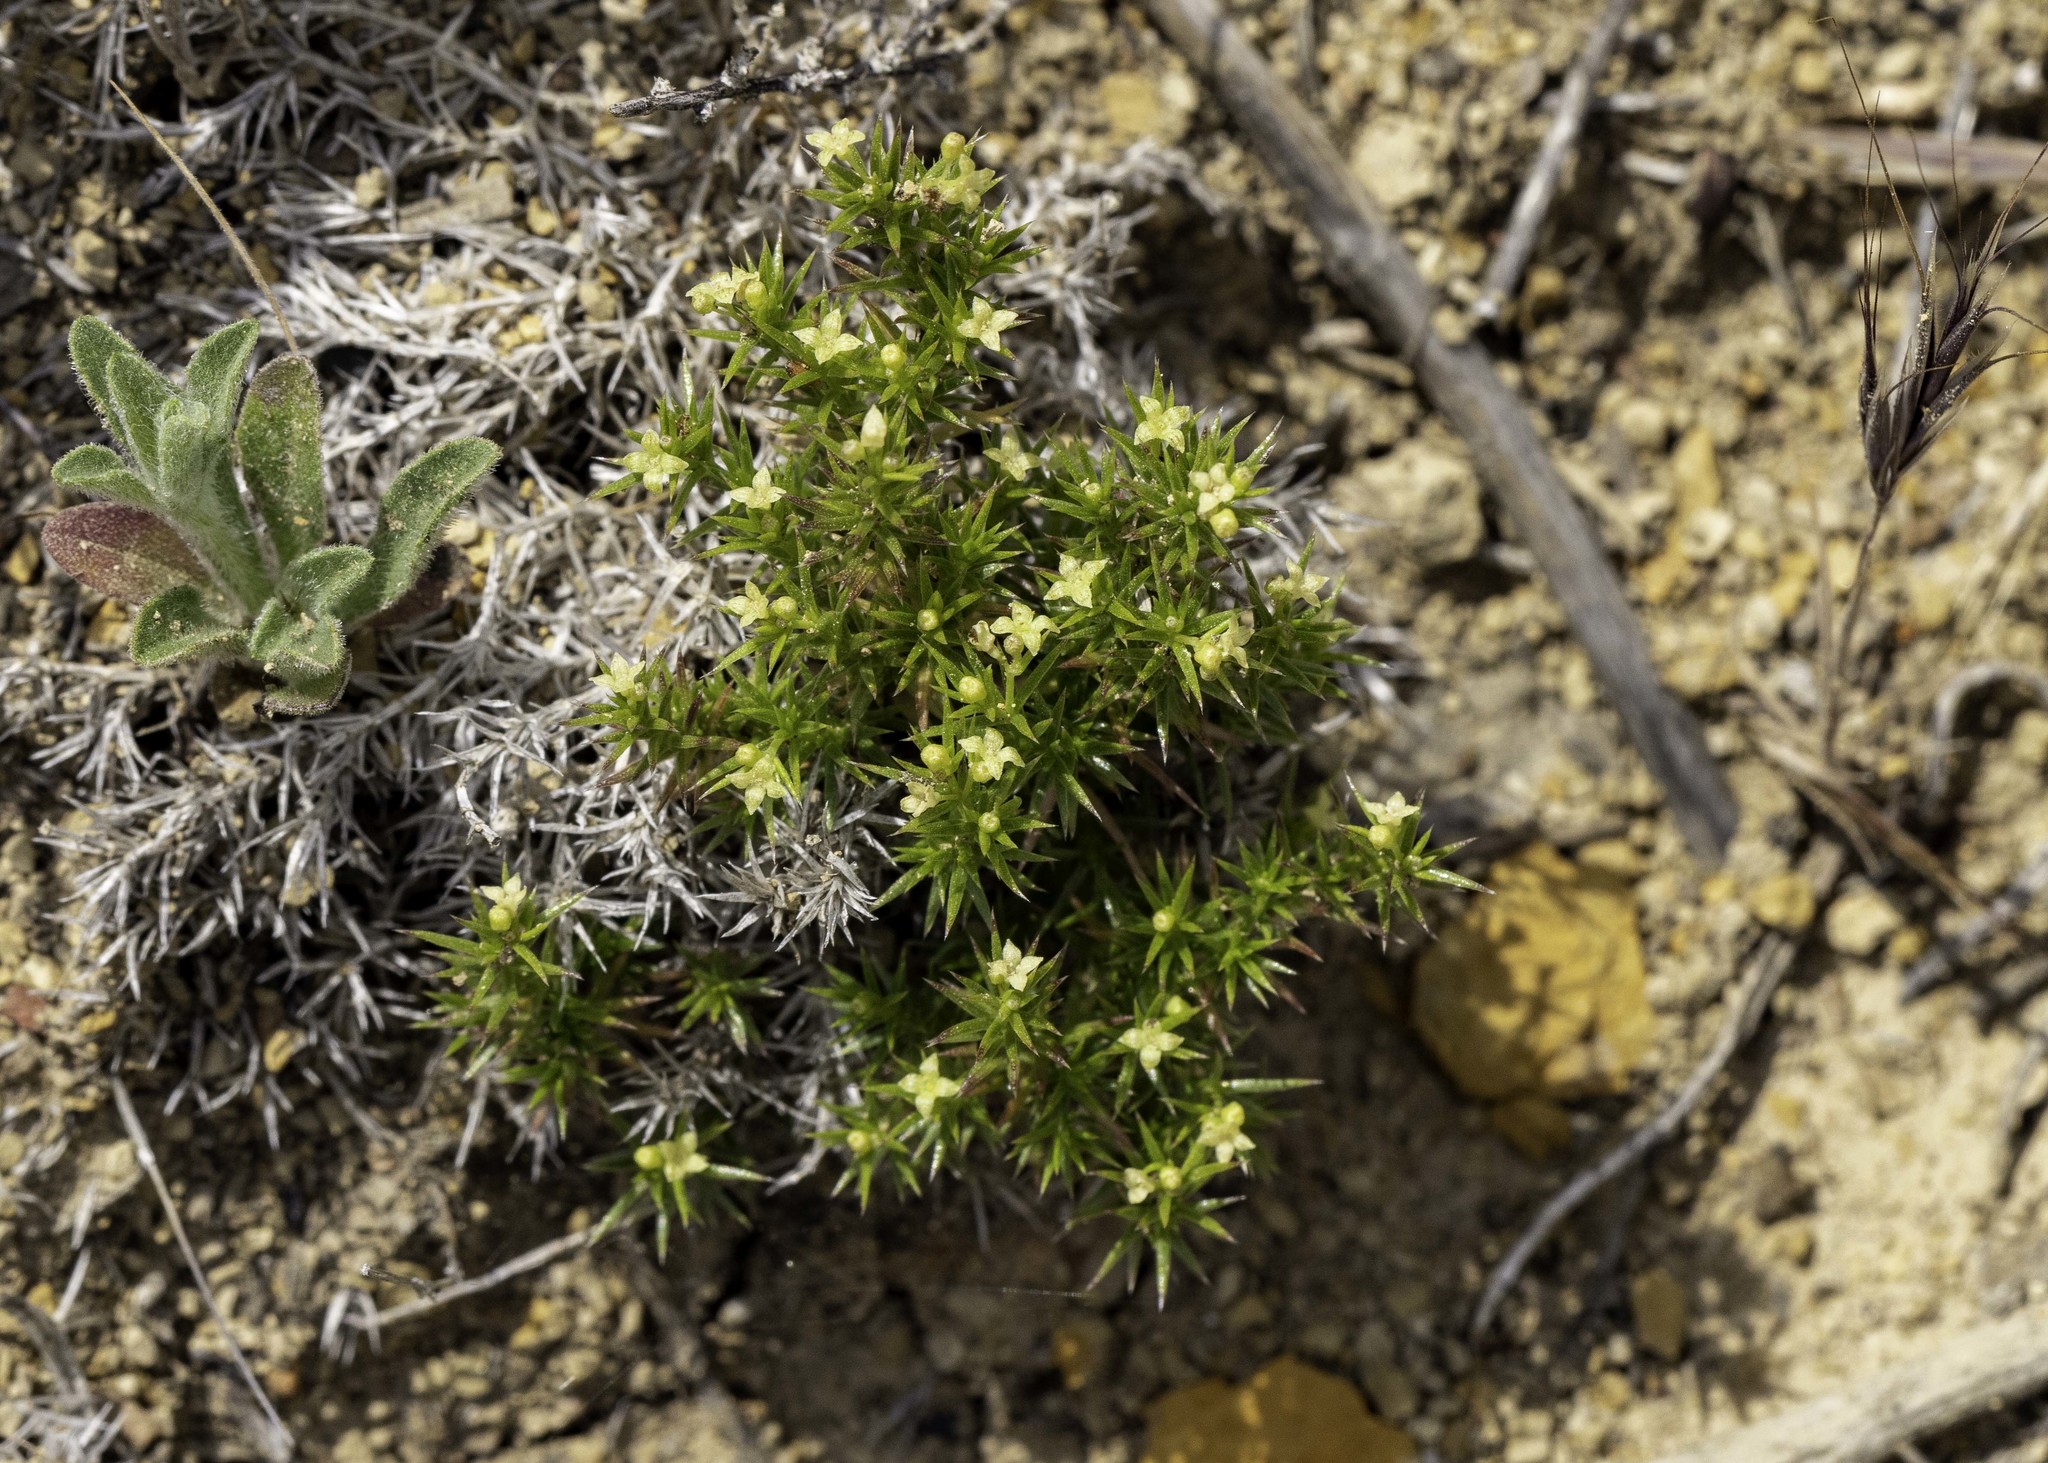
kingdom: Plantae
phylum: Tracheophyta
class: Magnoliopsida
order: Gentianales
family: Rubiaceae
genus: Galium
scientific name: Galium andrewsii
